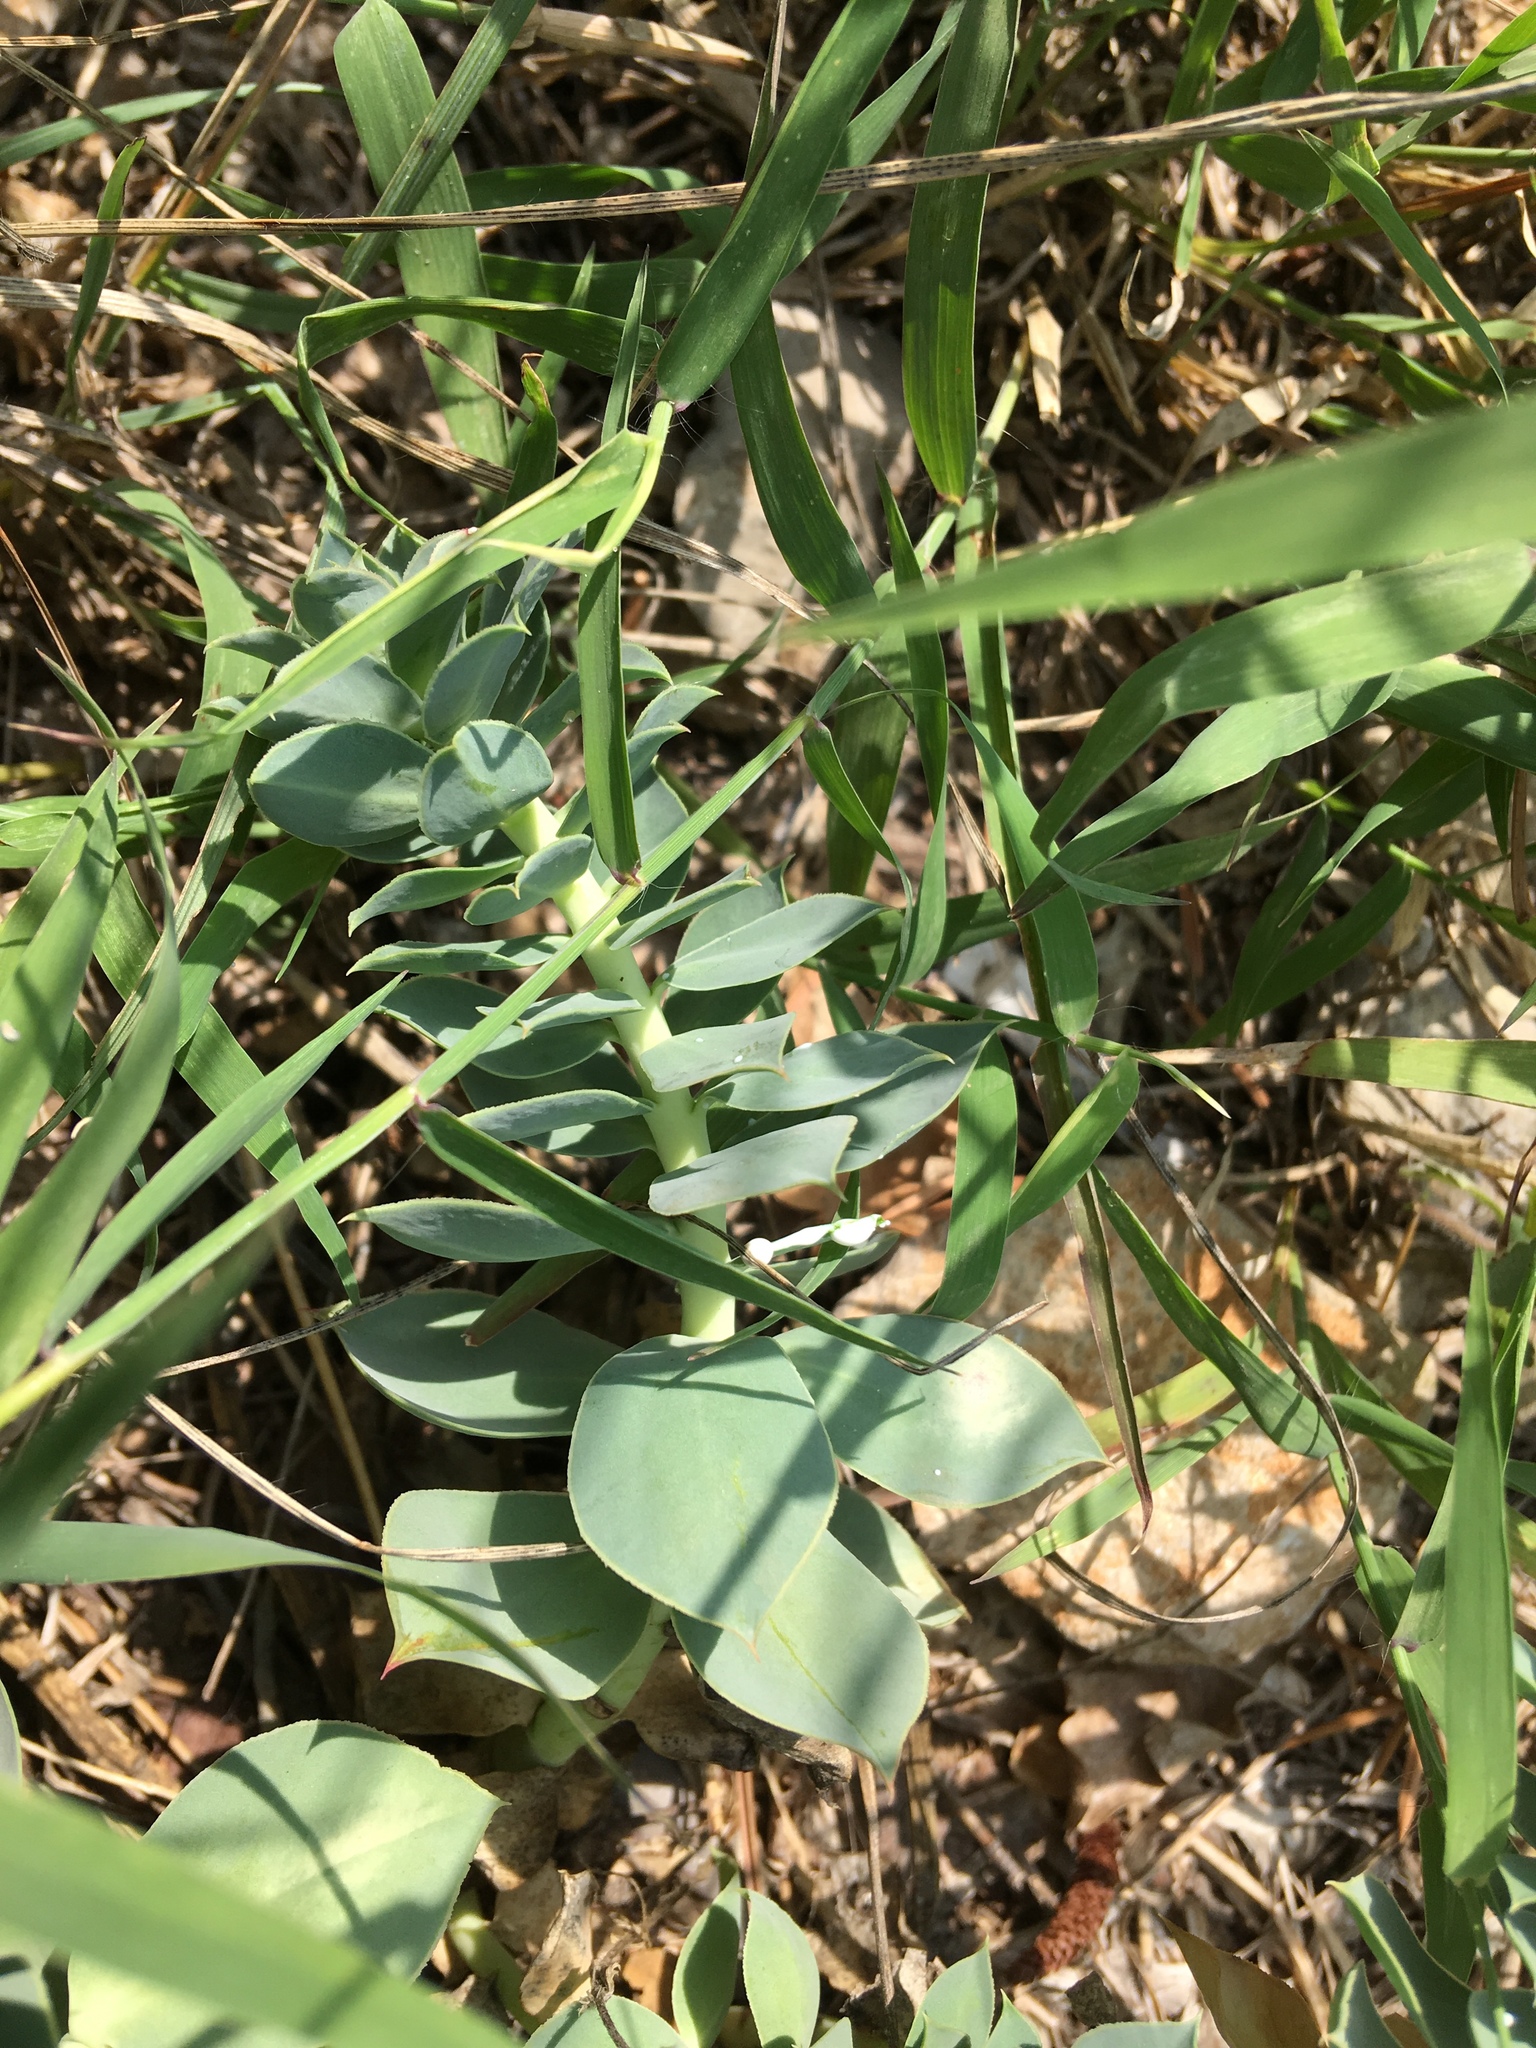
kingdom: Plantae
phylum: Tracheophyta
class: Magnoliopsida
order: Malpighiales
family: Euphorbiaceae
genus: Euphorbia
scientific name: Euphorbia myrsinites
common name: Myrtle spurge
